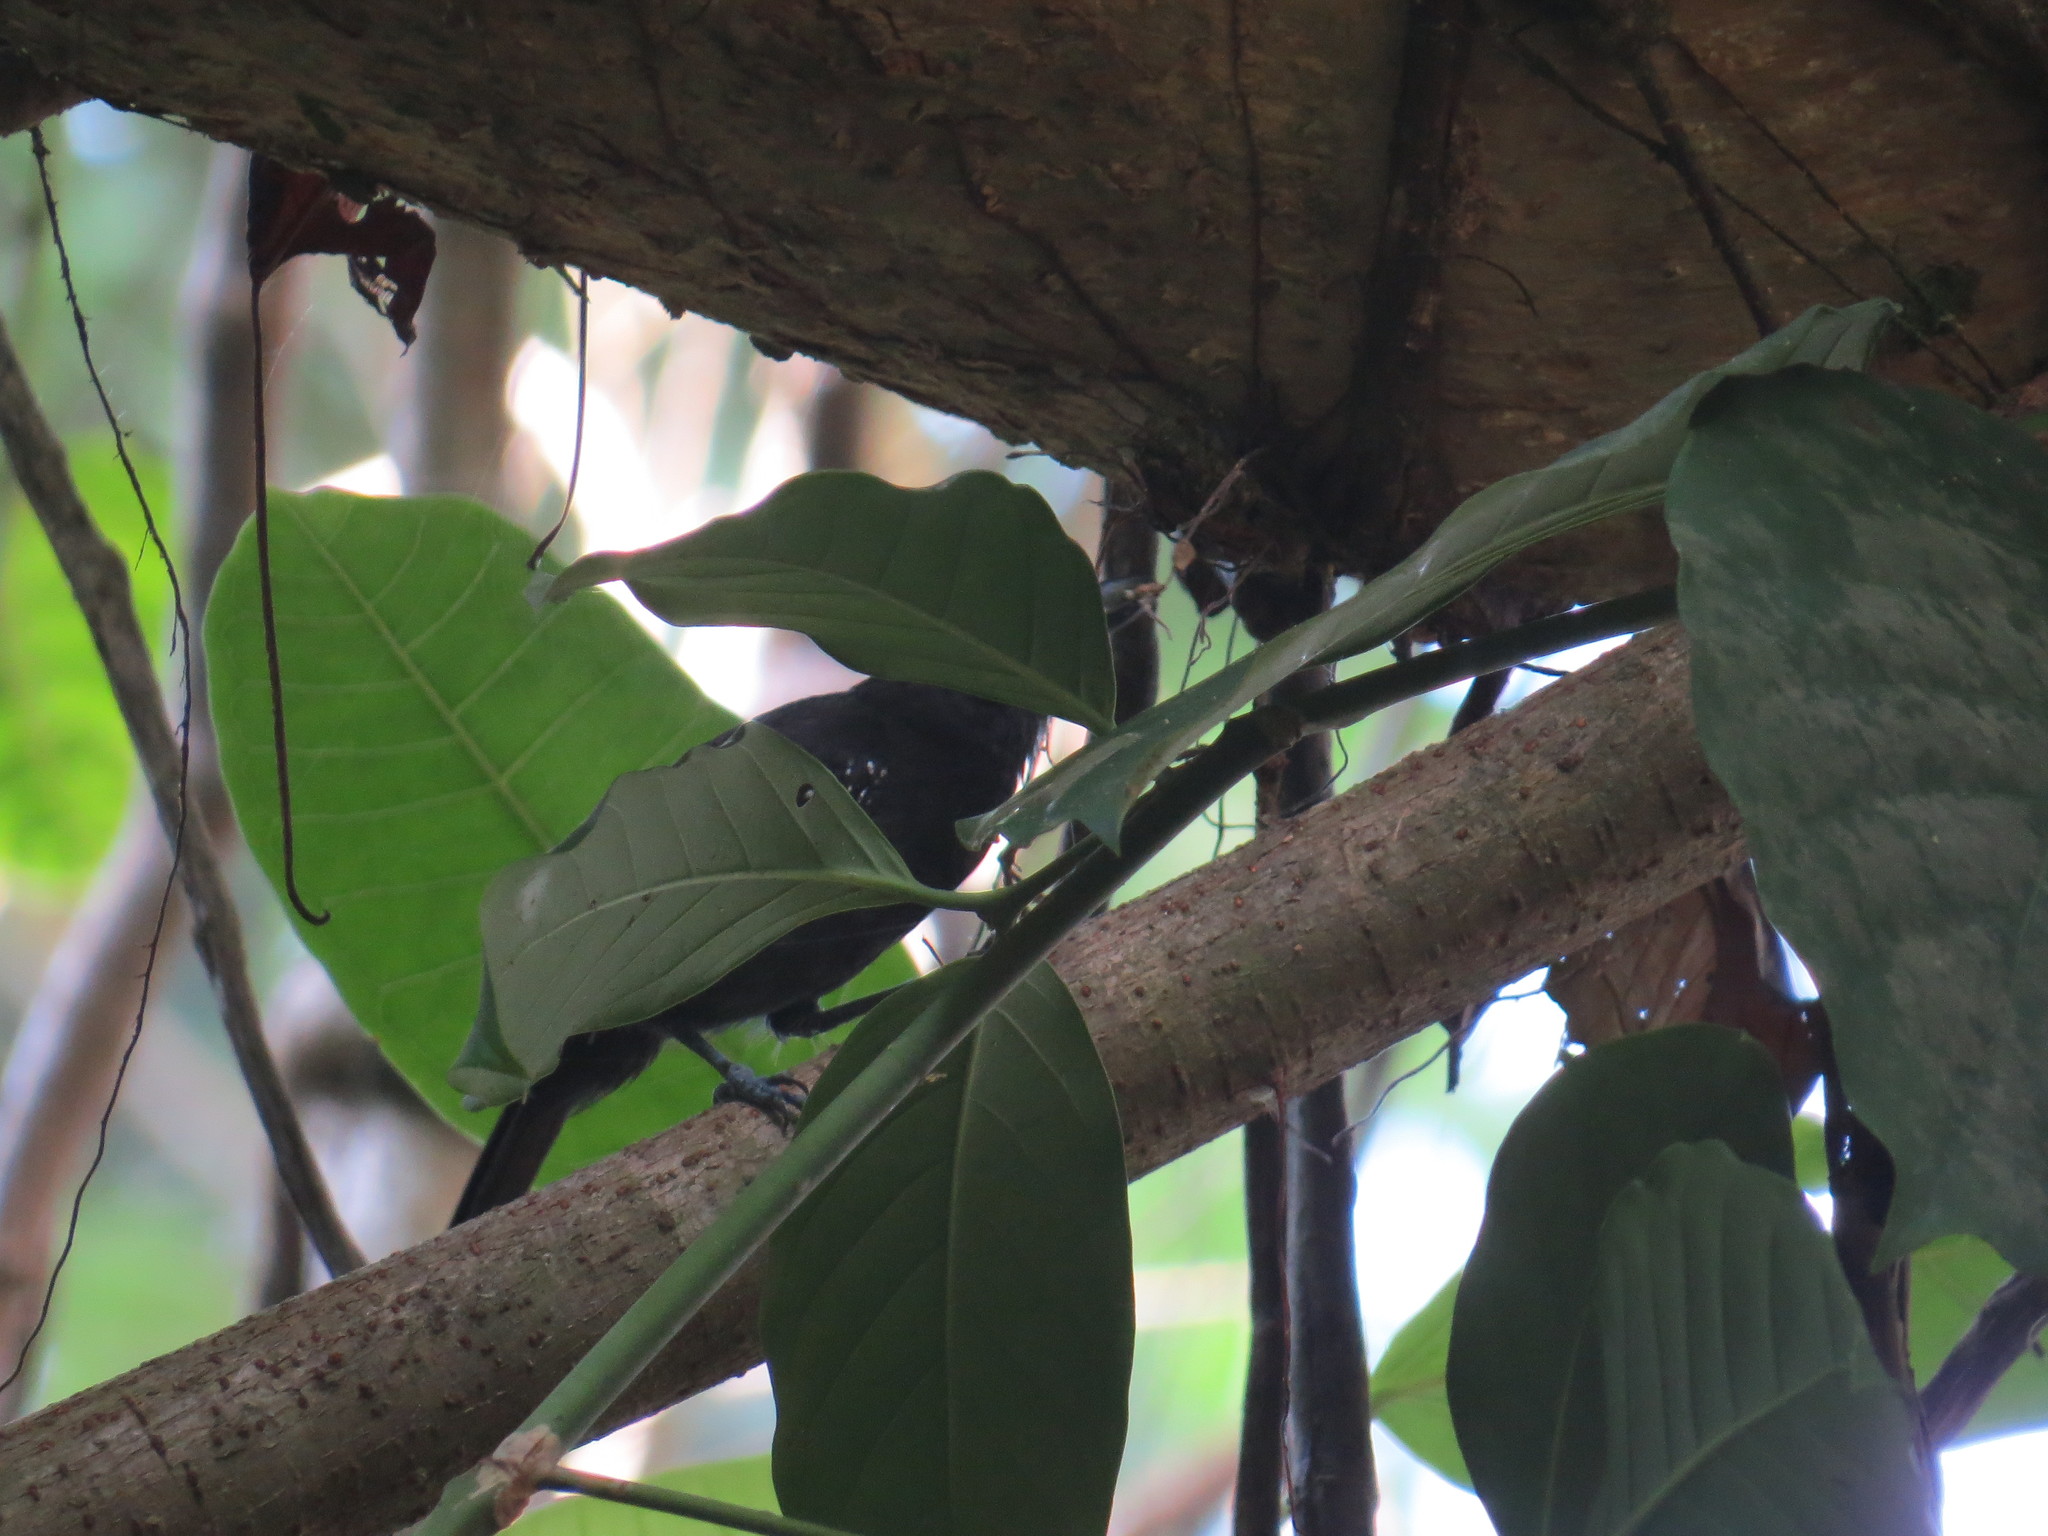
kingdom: Animalia
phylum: Chordata
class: Aves
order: Passeriformes
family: Thamnophilidae
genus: Thamnophilus
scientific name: Thamnophilus bridgesi
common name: Black-hooded antshrike
